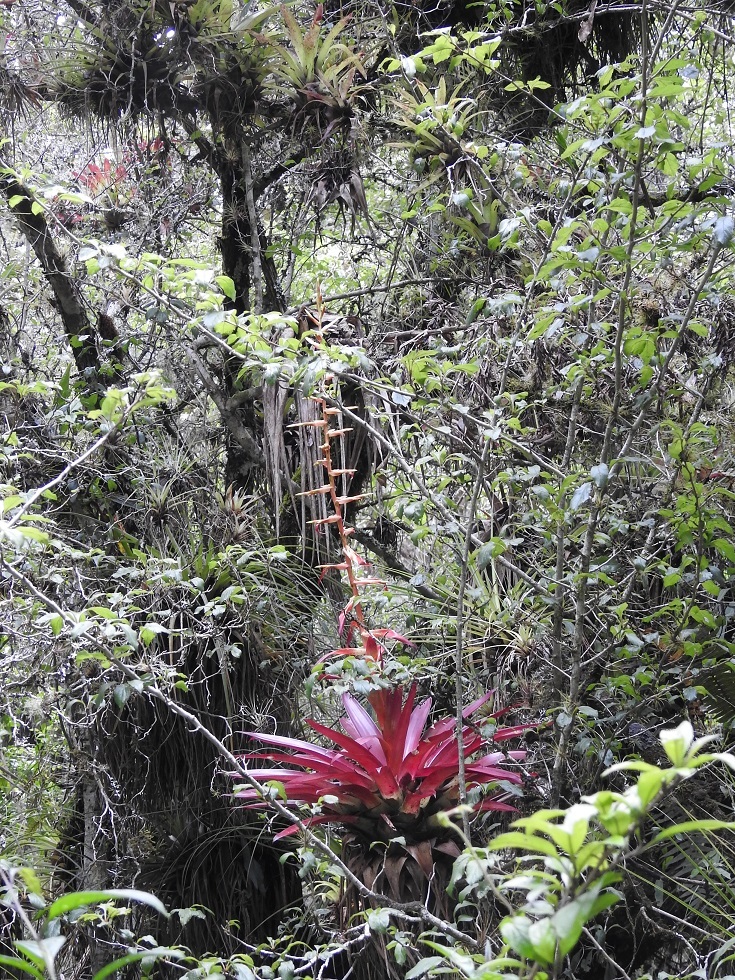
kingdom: Plantae
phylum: Tracheophyta
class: Liliopsida
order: Poales
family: Bromeliaceae
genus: Tillandsia
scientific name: Tillandsia guatemalensis
